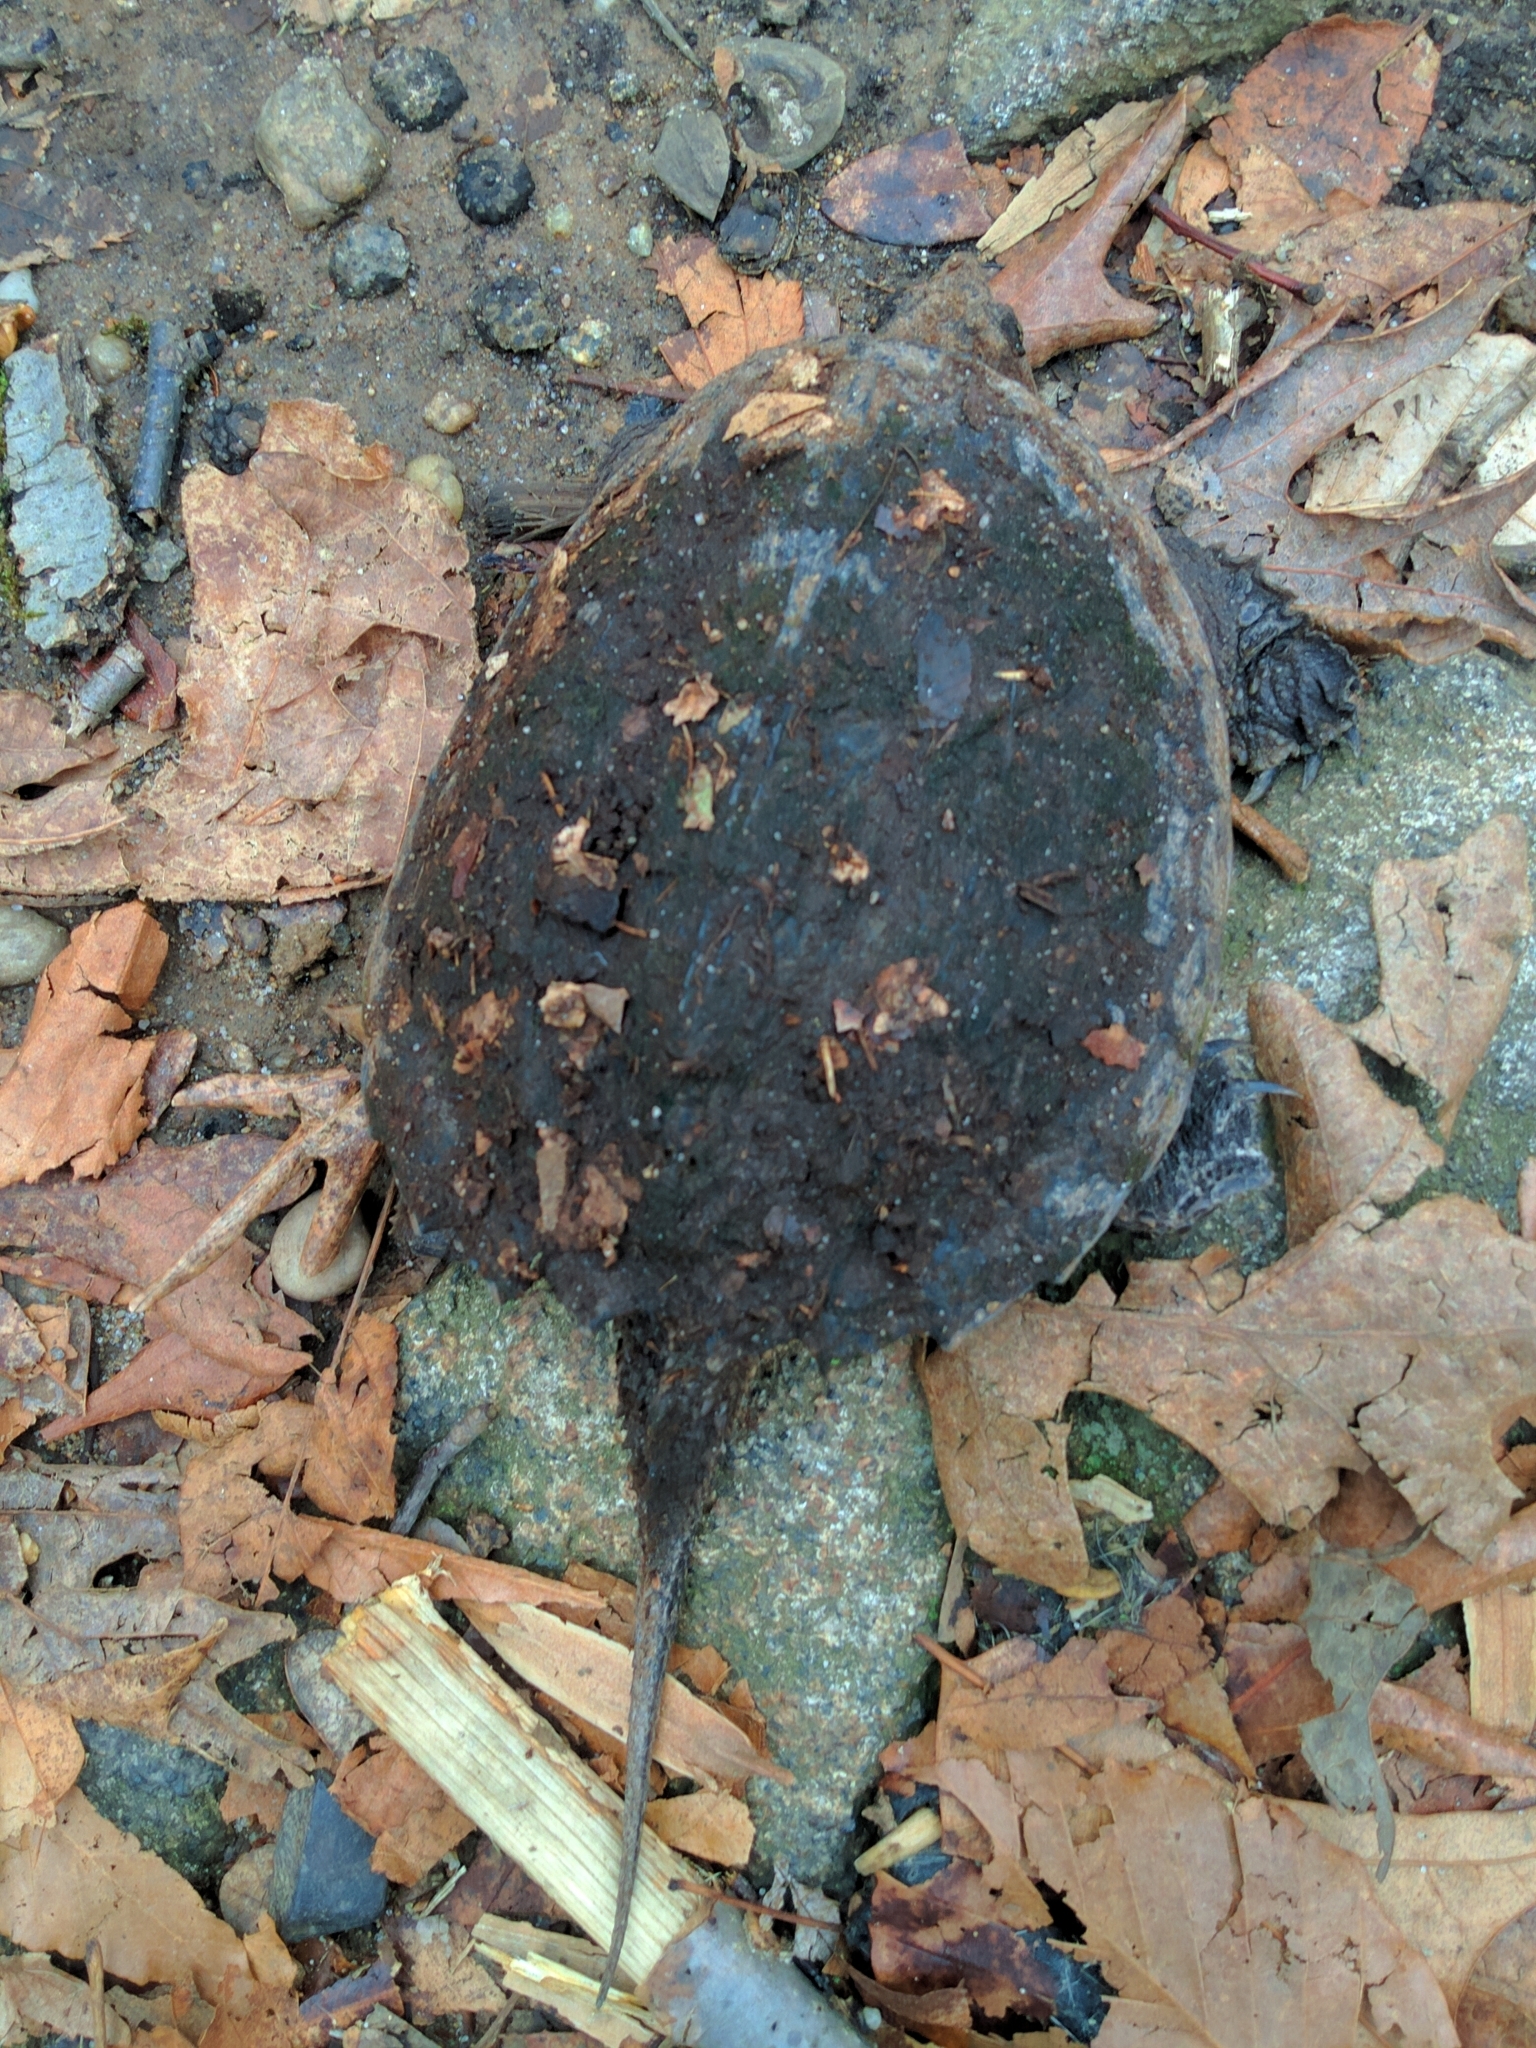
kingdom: Animalia
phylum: Chordata
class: Testudines
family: Chelydridae
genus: Chelydra
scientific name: Chelydra serpentina
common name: Common snapping turtle
